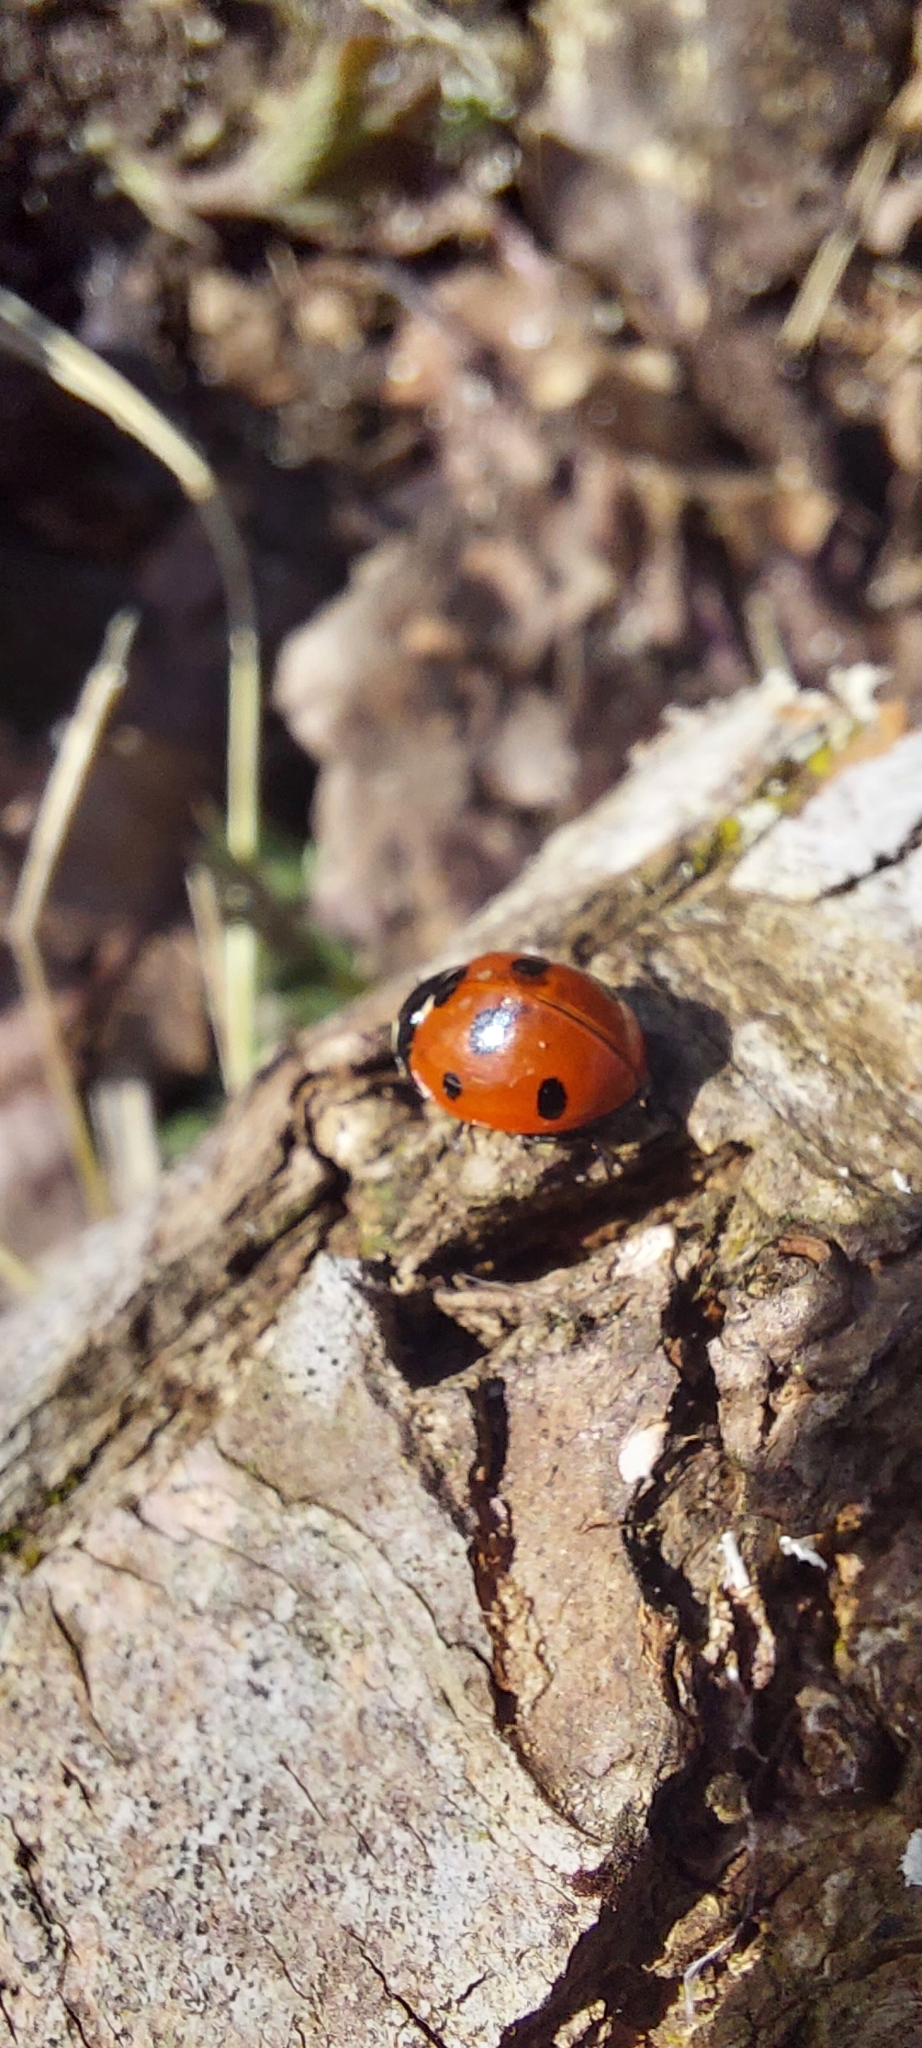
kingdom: Animalia
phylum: Arthropoda
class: Insecta
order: Coleoptera
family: Coccinellidae
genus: Coccinella
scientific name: Coccinella septempunctata
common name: Sevenspotted lady beetle
